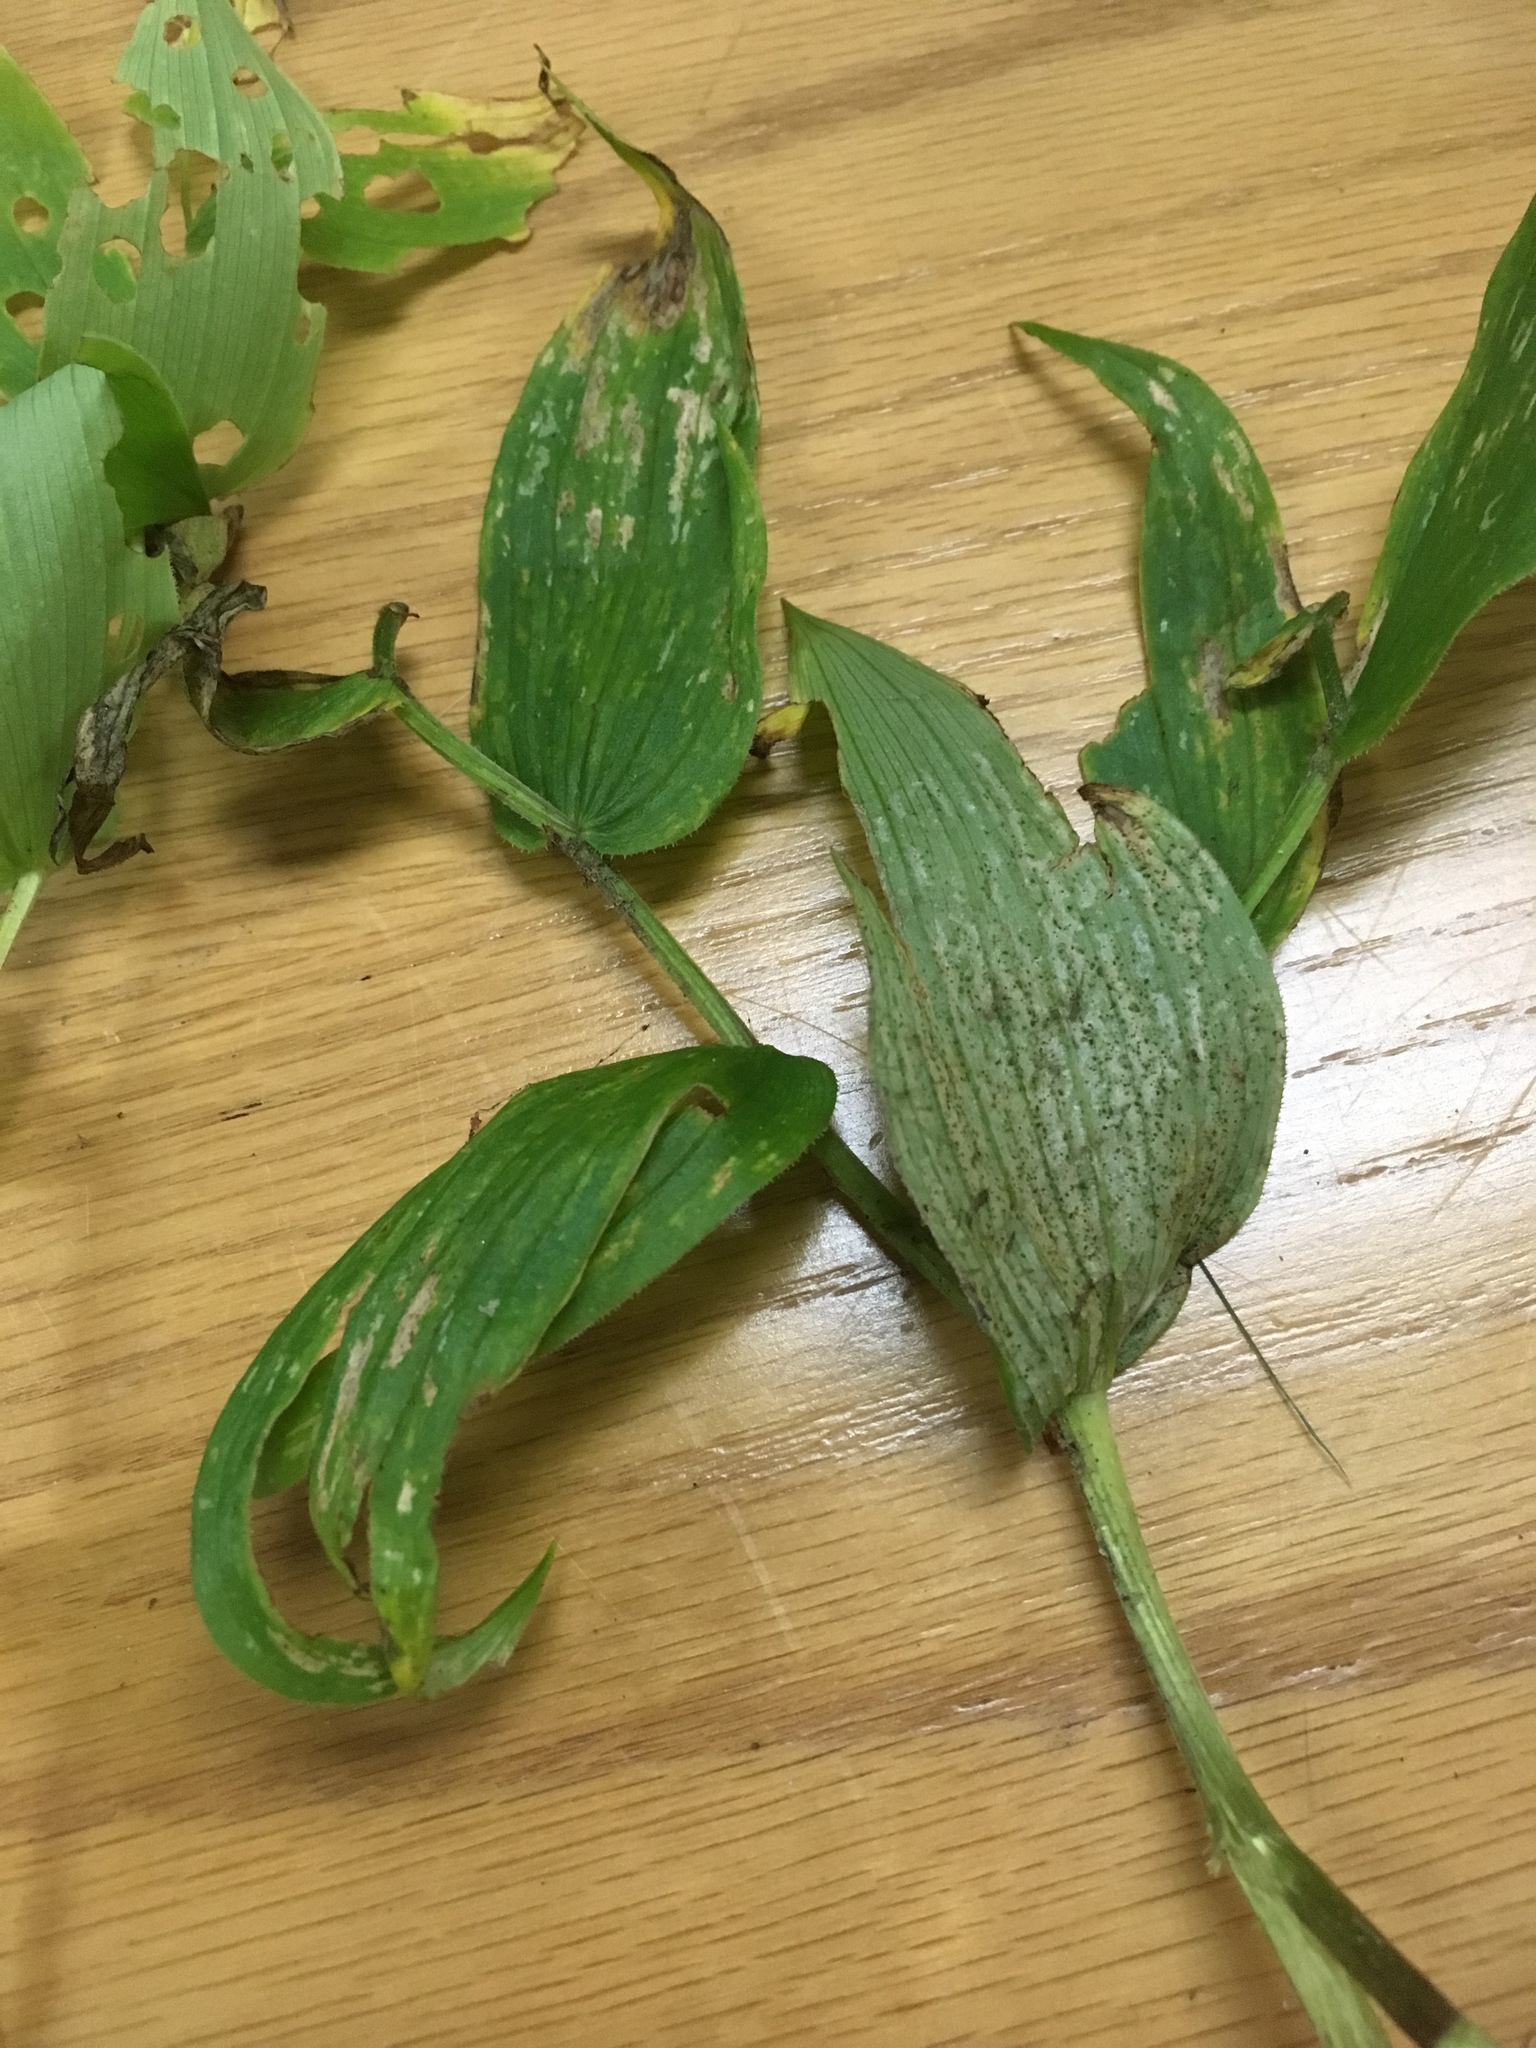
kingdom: Plantae
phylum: Tracheophyta
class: Liliopsida
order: Liliales
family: Liliaceae
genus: Streptopus
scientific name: Streptopus lanceolatus
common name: Rose mandarin
